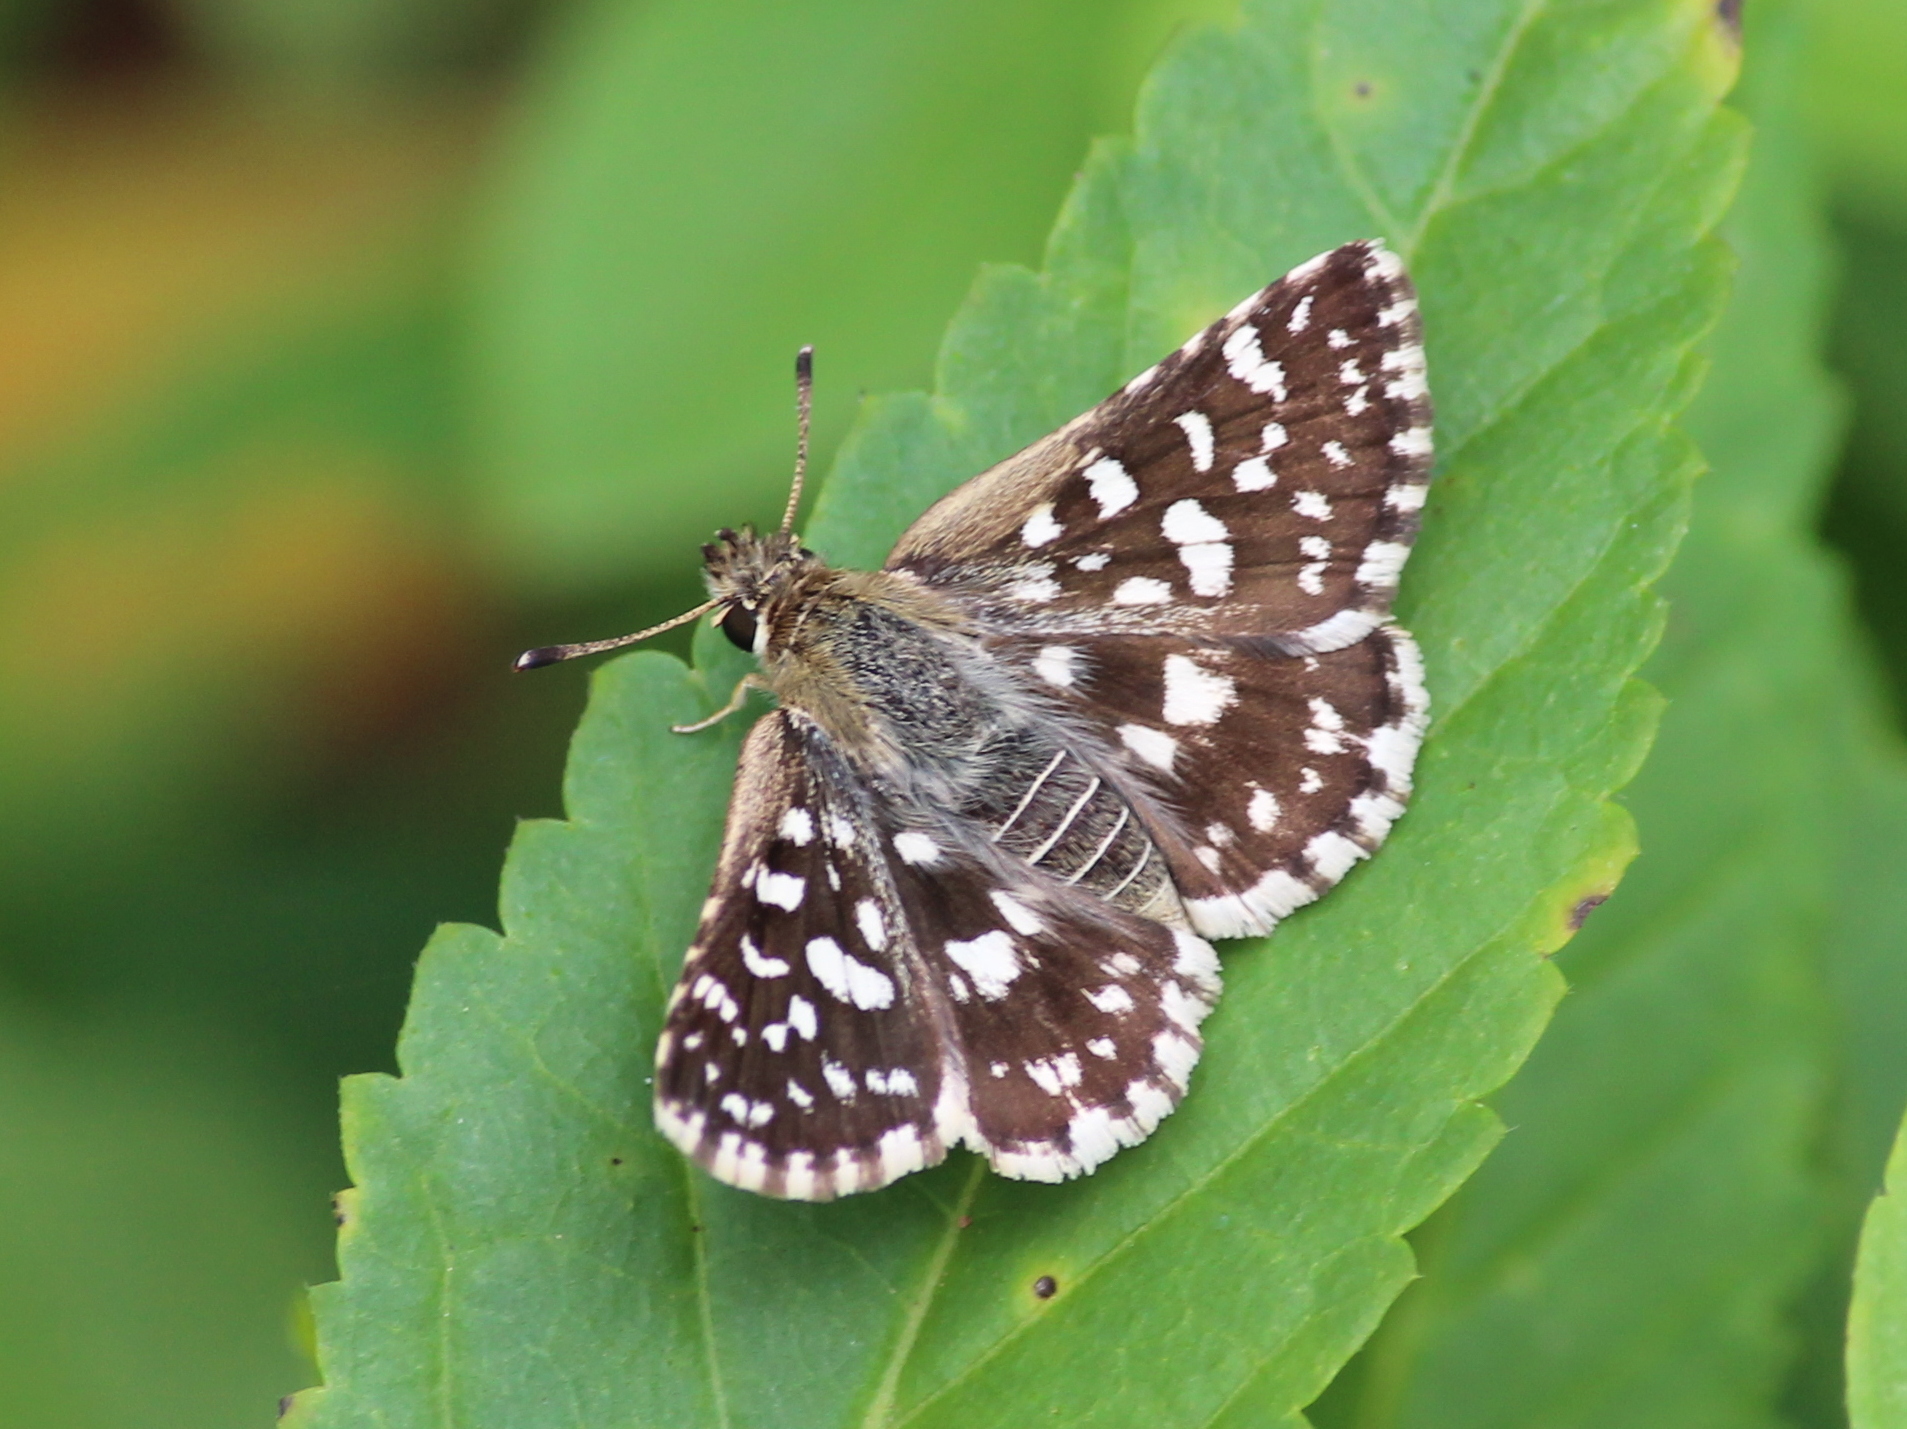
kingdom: Animalia
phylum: Arthropoda
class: Insecta
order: Lepidoptera
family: Hesperiidae
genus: Spialia
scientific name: Spialia galba
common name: Indian skipper
